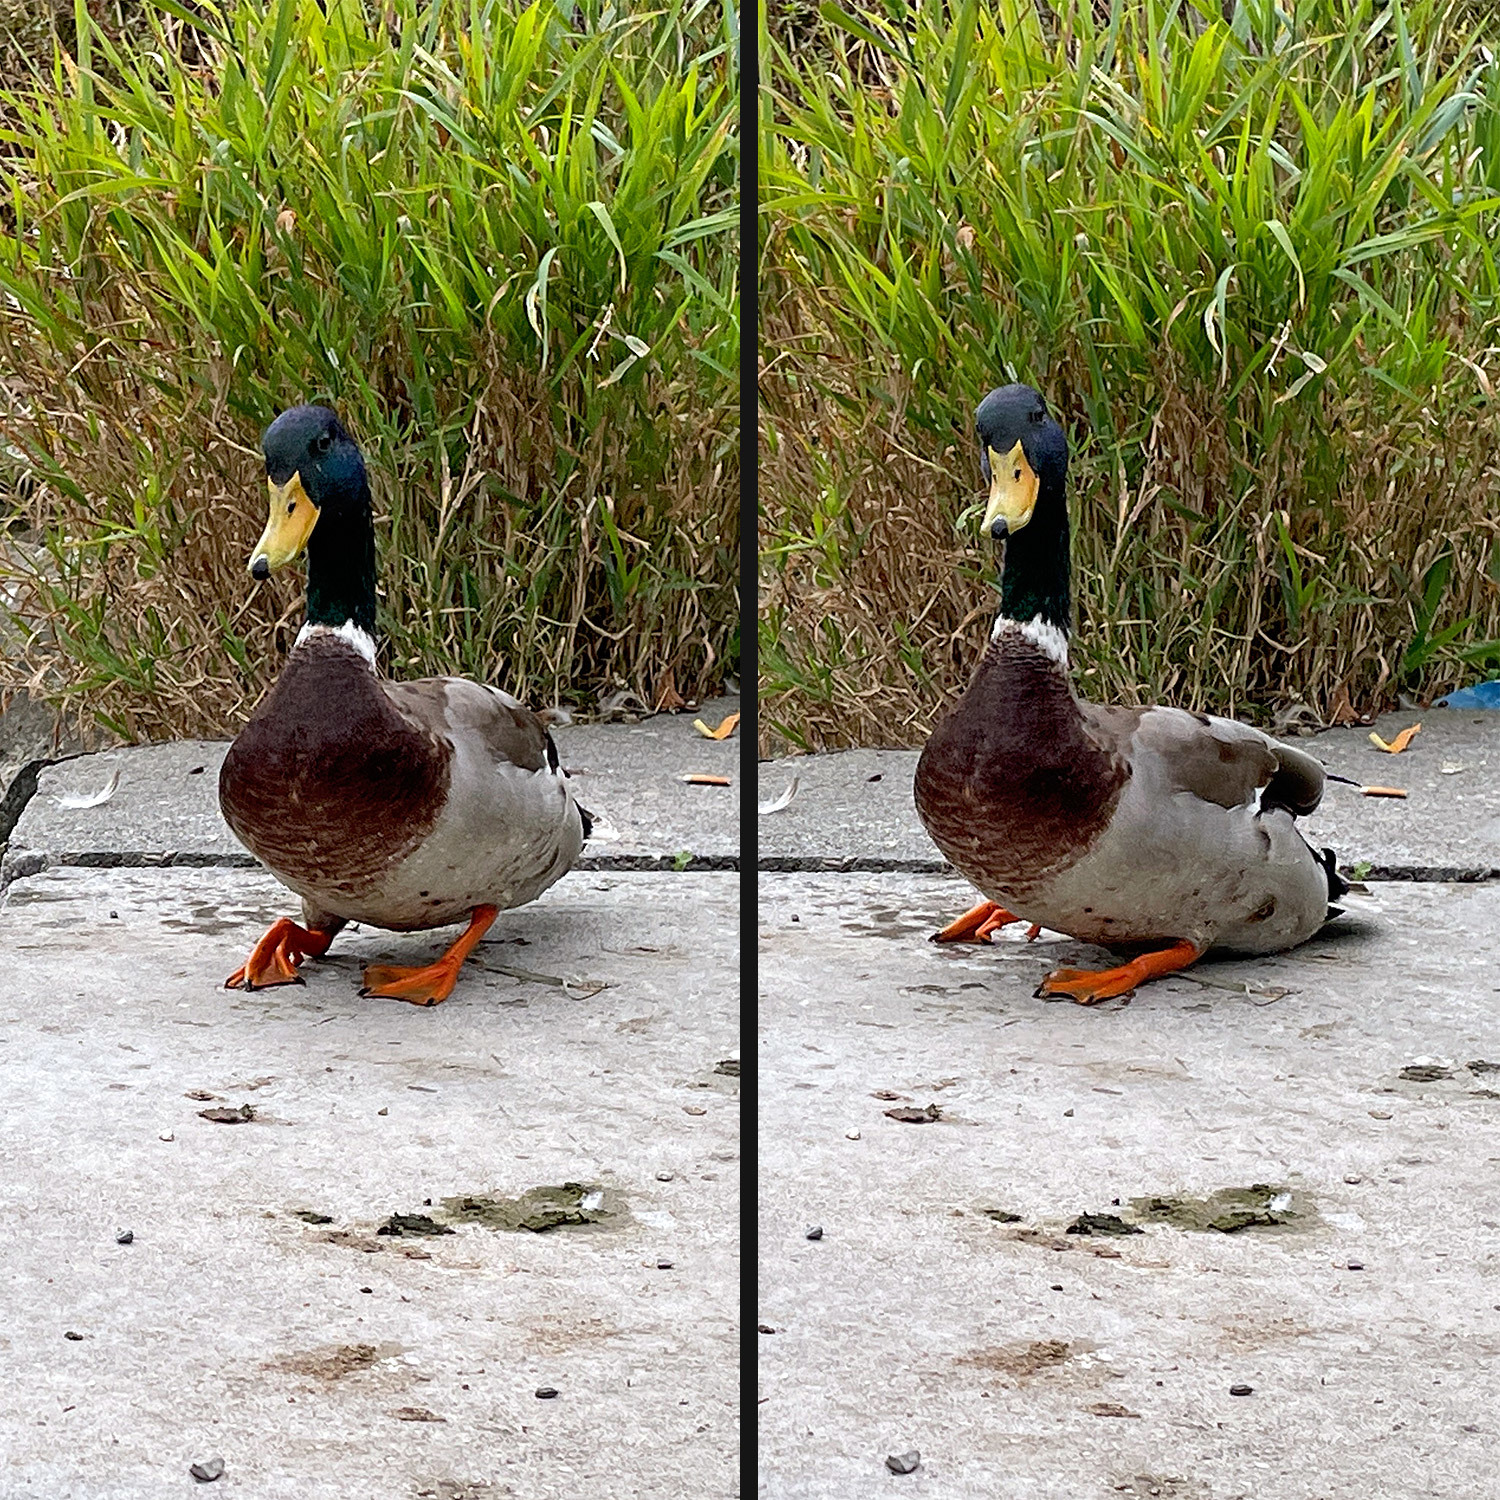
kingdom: Animalia
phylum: Chordata
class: Aves
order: Anseriformes
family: Anatidae
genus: Anas
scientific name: Anas platyrhynchos
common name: Mallard
